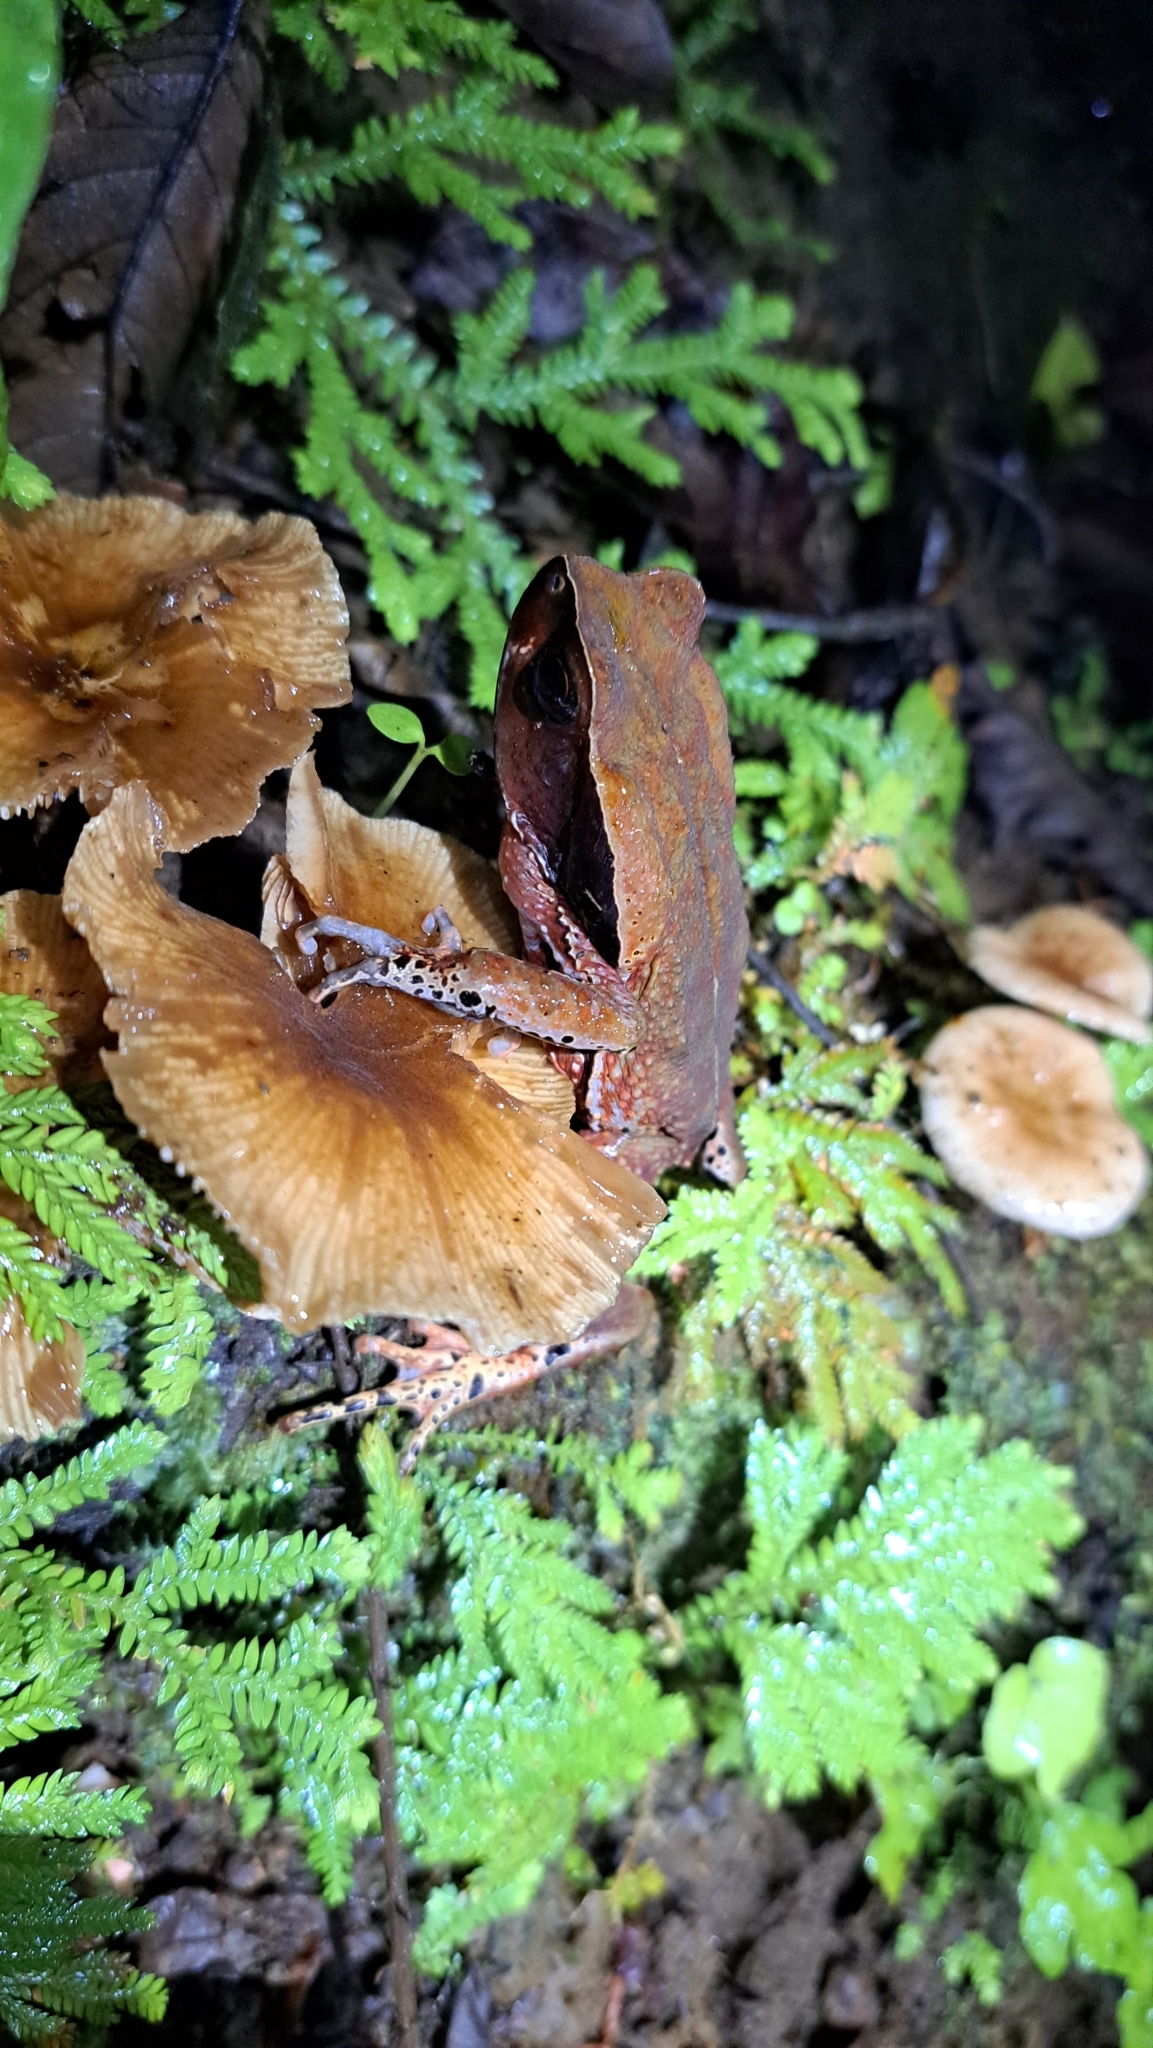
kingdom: Animalia
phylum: Chordata
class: Amphibia
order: Anura
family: Bufonidae
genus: Rhaebo
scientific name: Rhaebo haematiticus
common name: Truando toad
